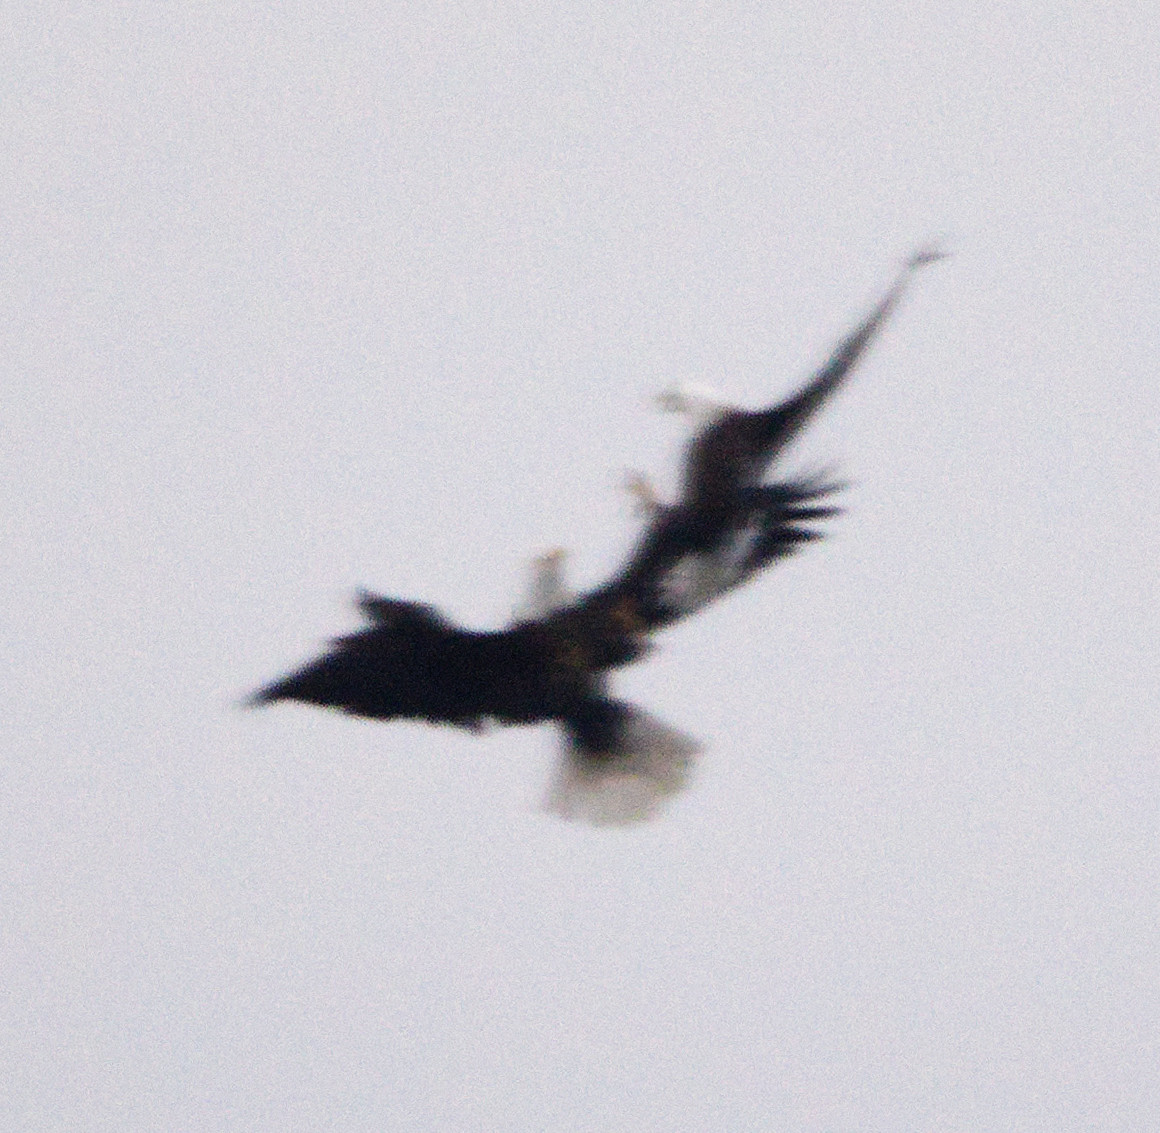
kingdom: Animalia
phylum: Chordata
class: Aves
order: Accipitriformes
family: Accipitridae
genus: Haliaeetus
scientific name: Haliaeetus leucocephalus
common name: Bald eagle
